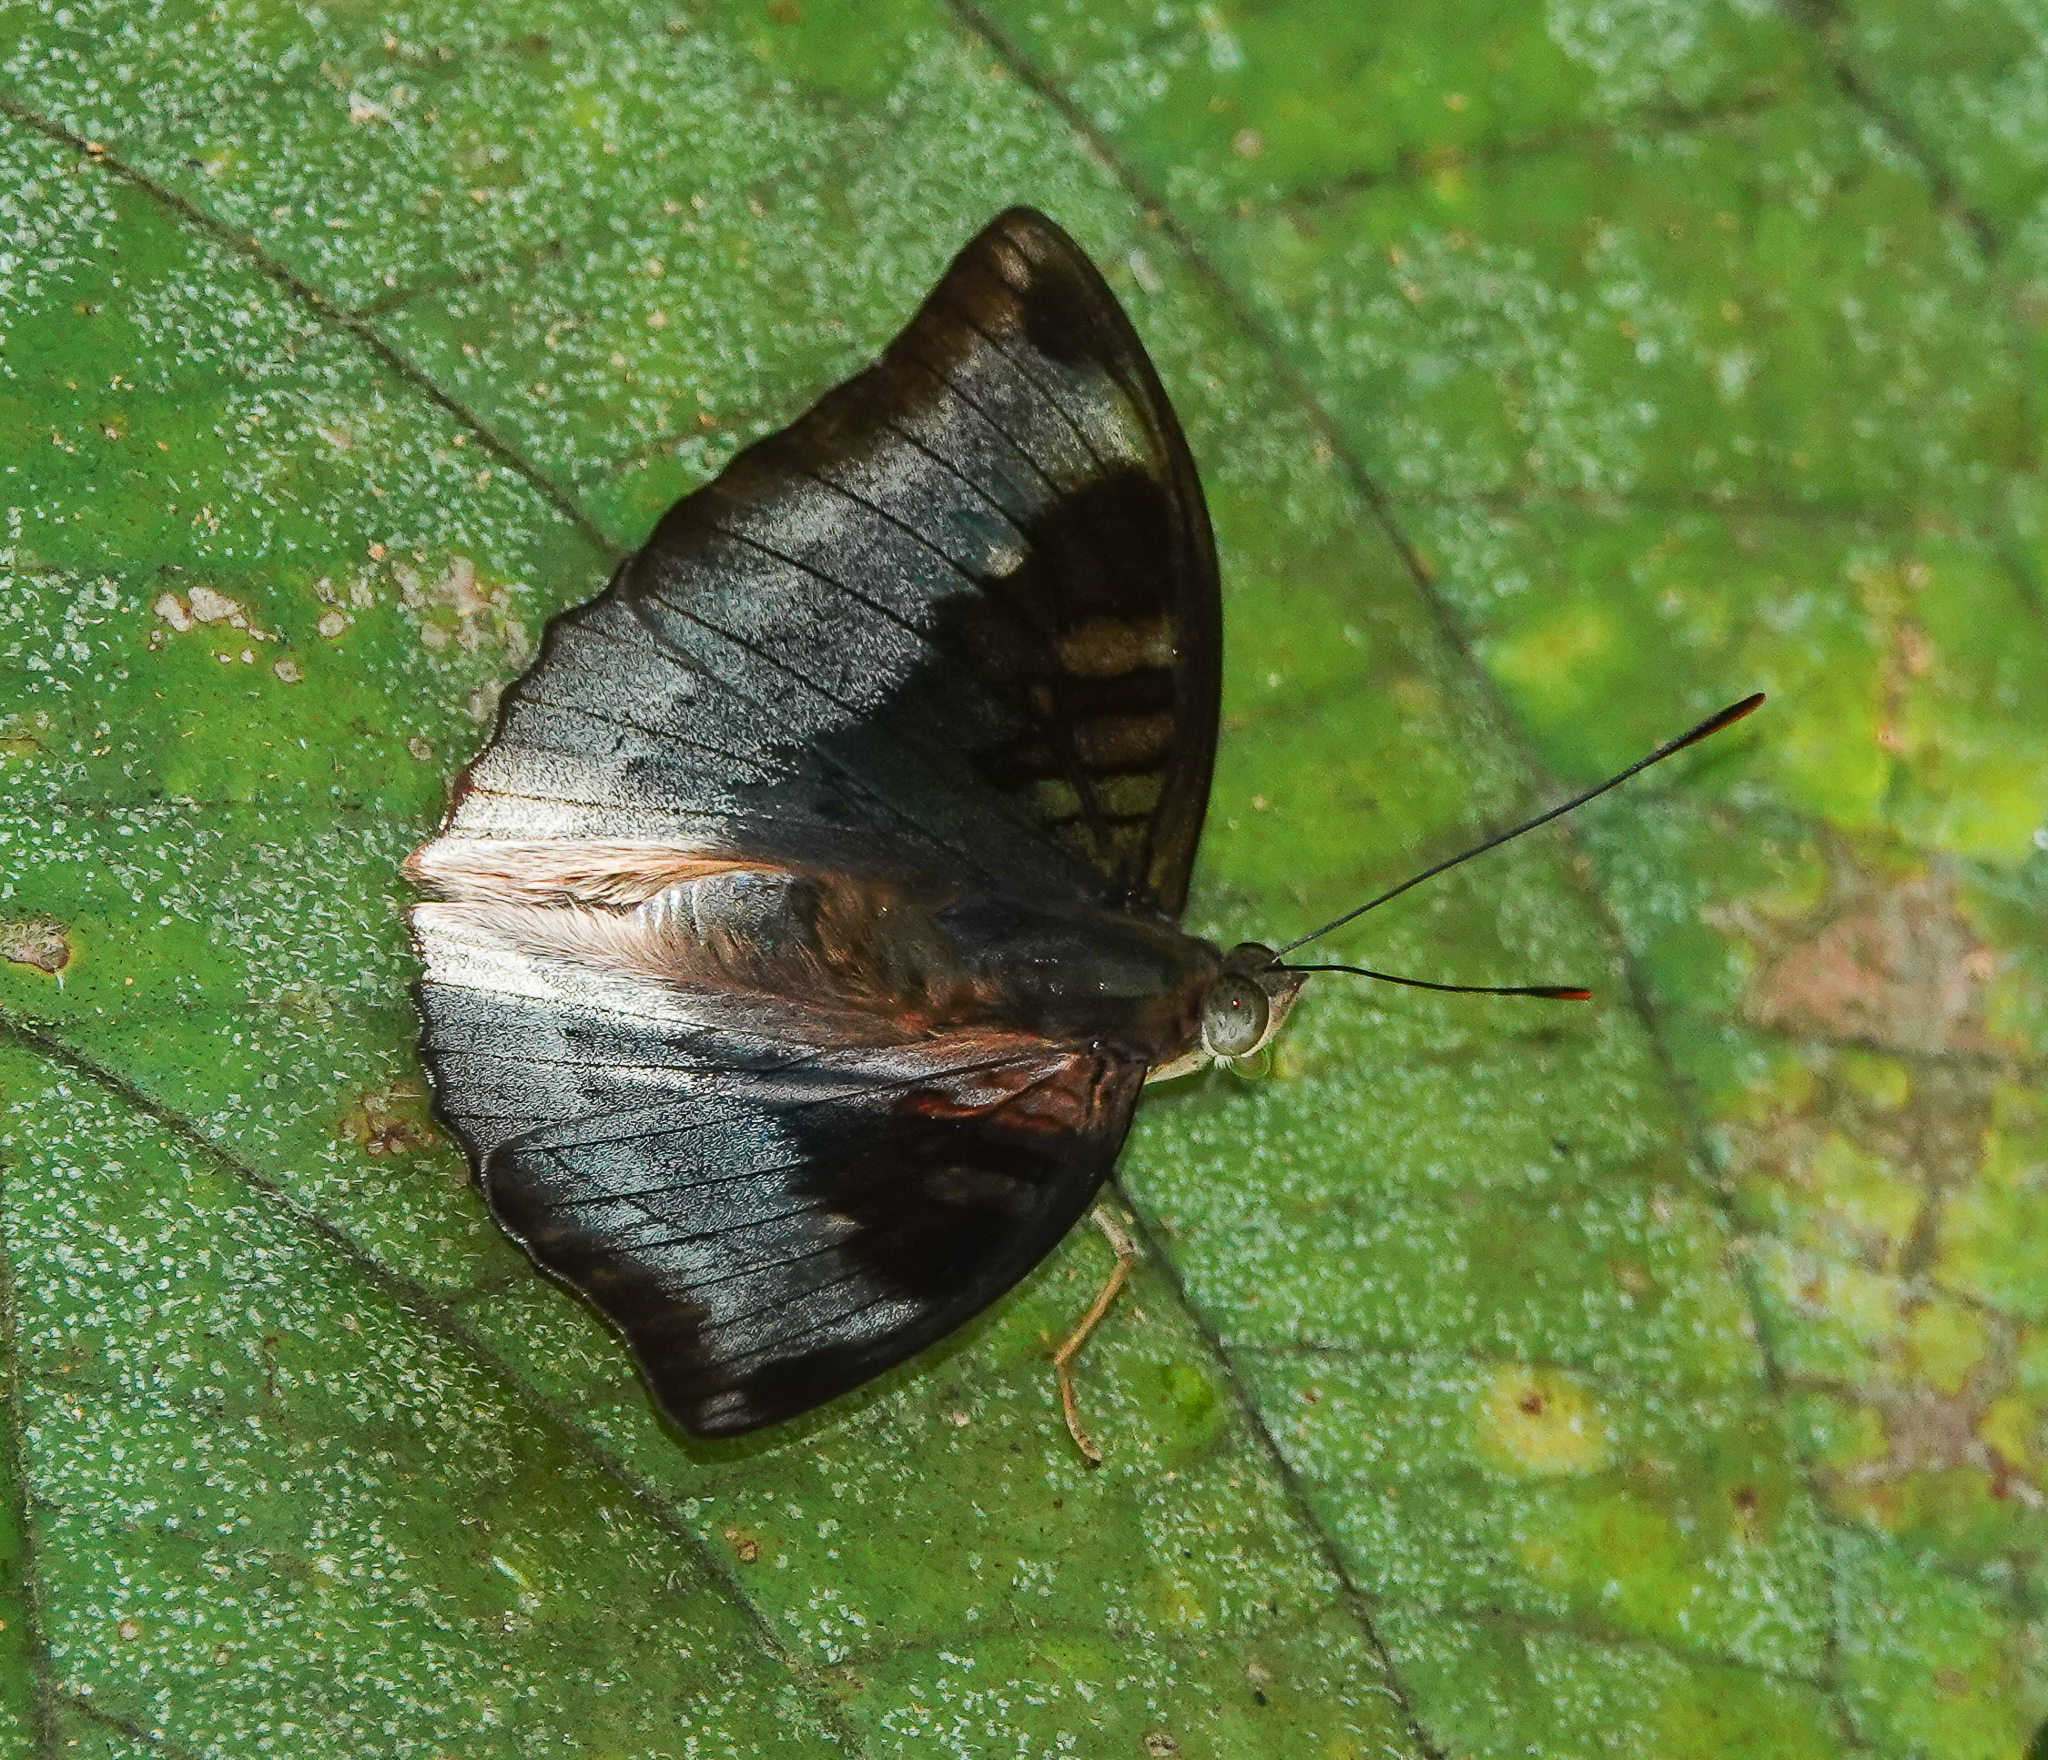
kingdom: Animalia
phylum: Arthropoda
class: Insecta
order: Lepidoptera
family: Nymphalidae
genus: Euthalia
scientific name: Euthalia monina
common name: Powdered baron
